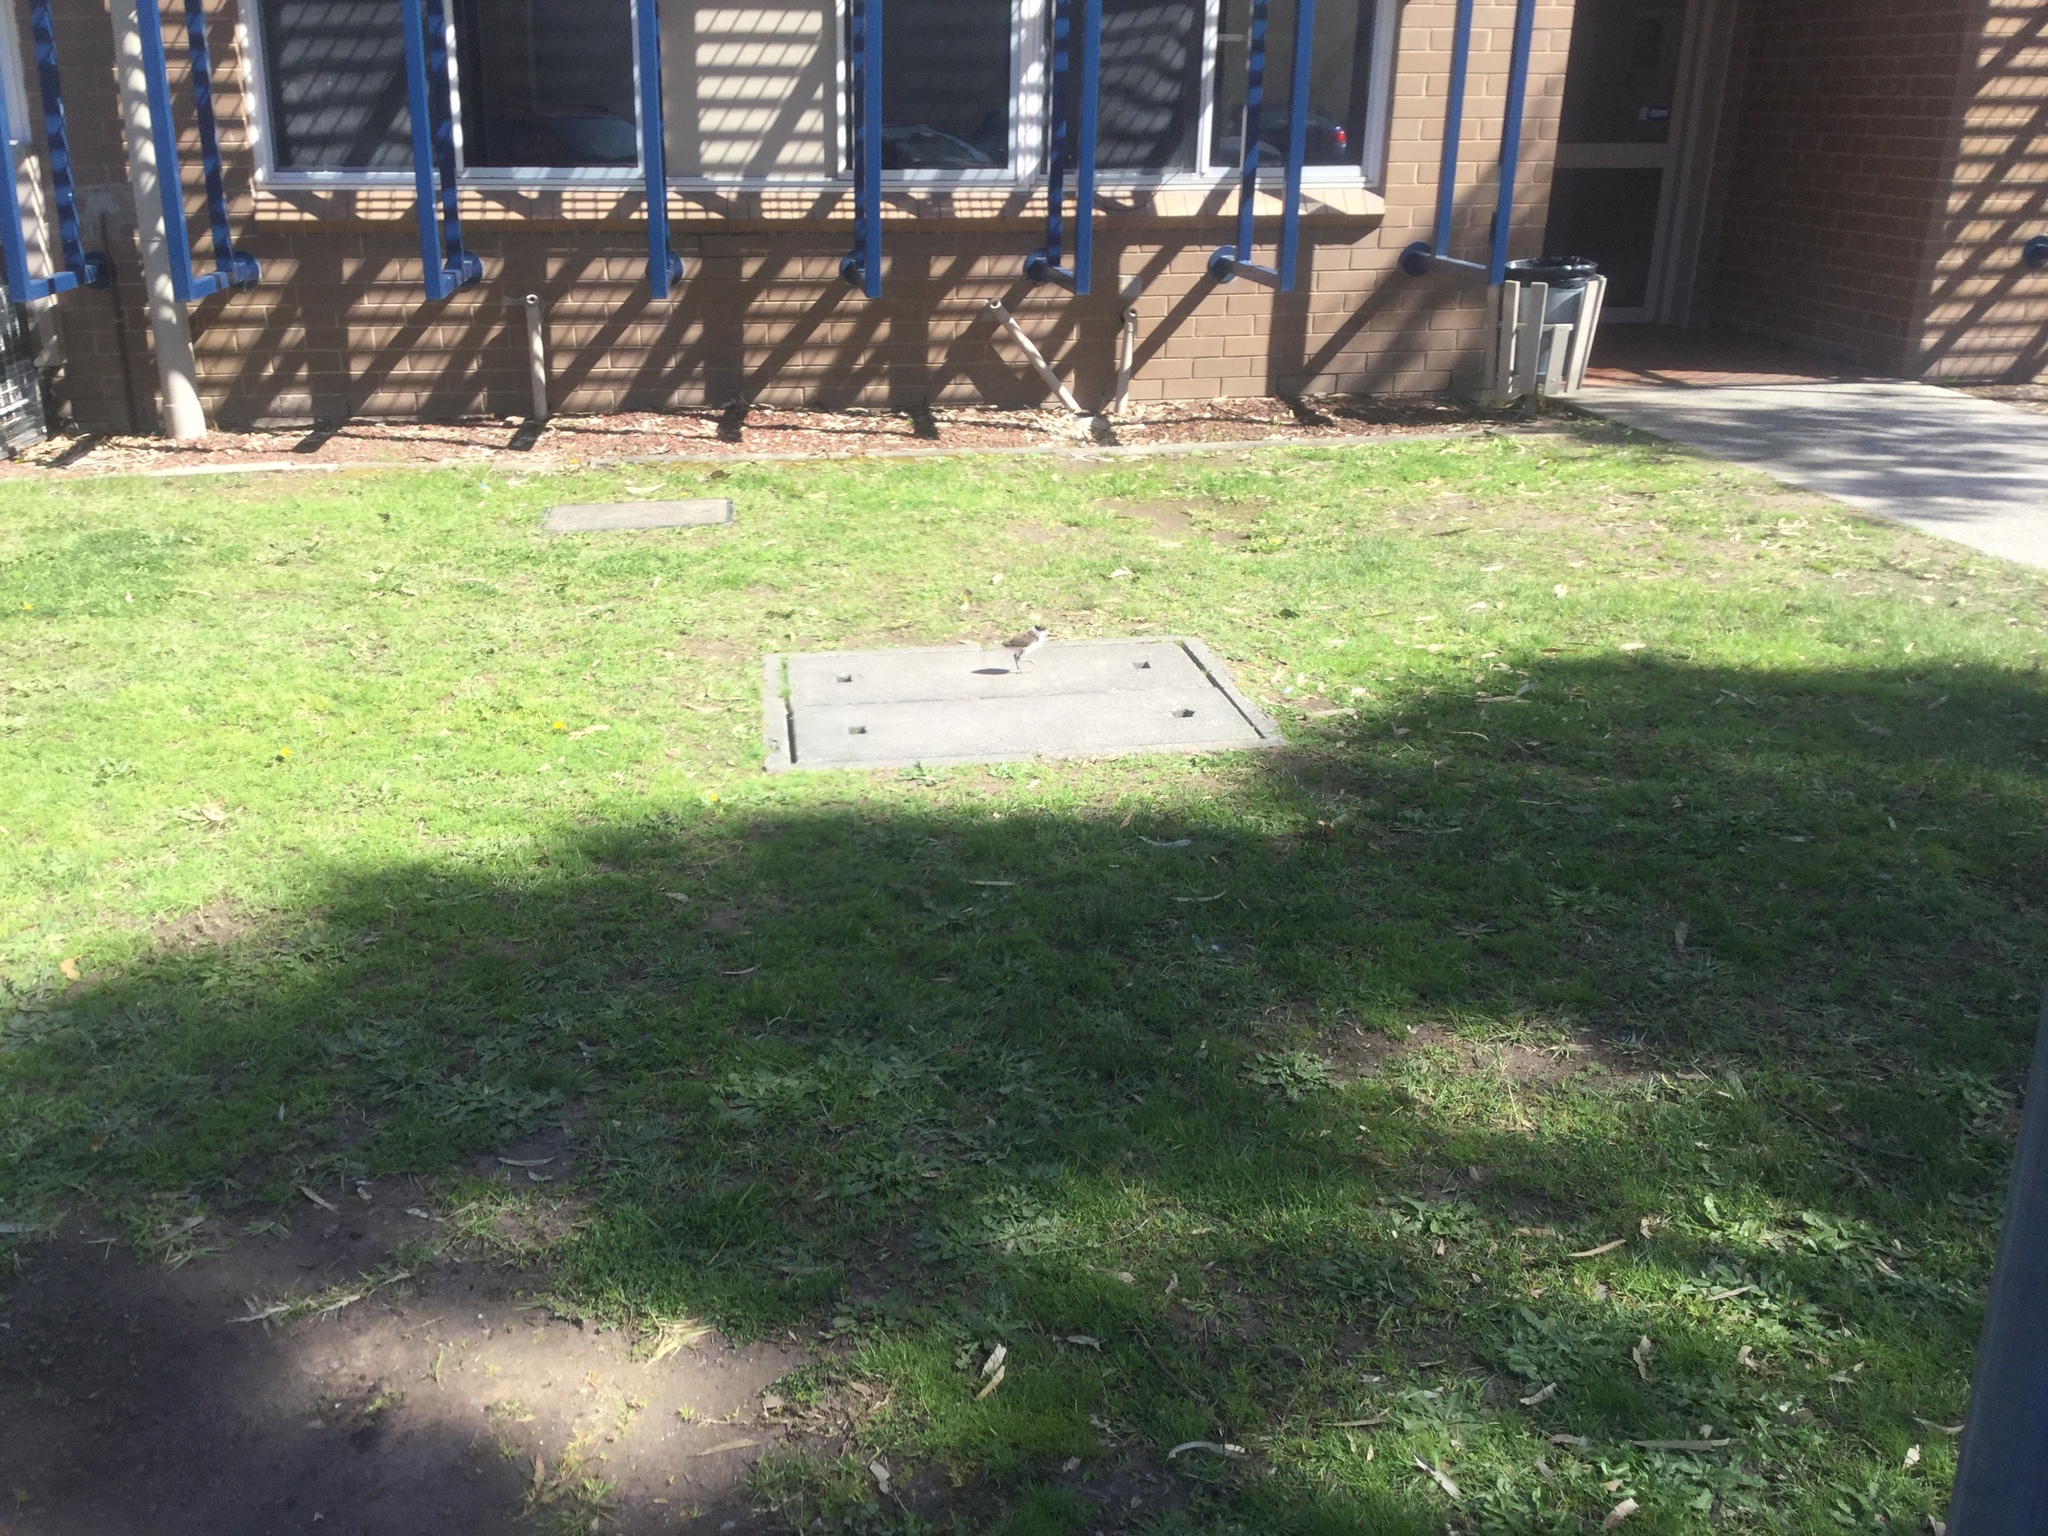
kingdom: Animalia
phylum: Chordata
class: Aves
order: Charadriiformes
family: Charadriidae
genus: Vanellus
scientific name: Vanellus miles
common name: Masked lapwing
